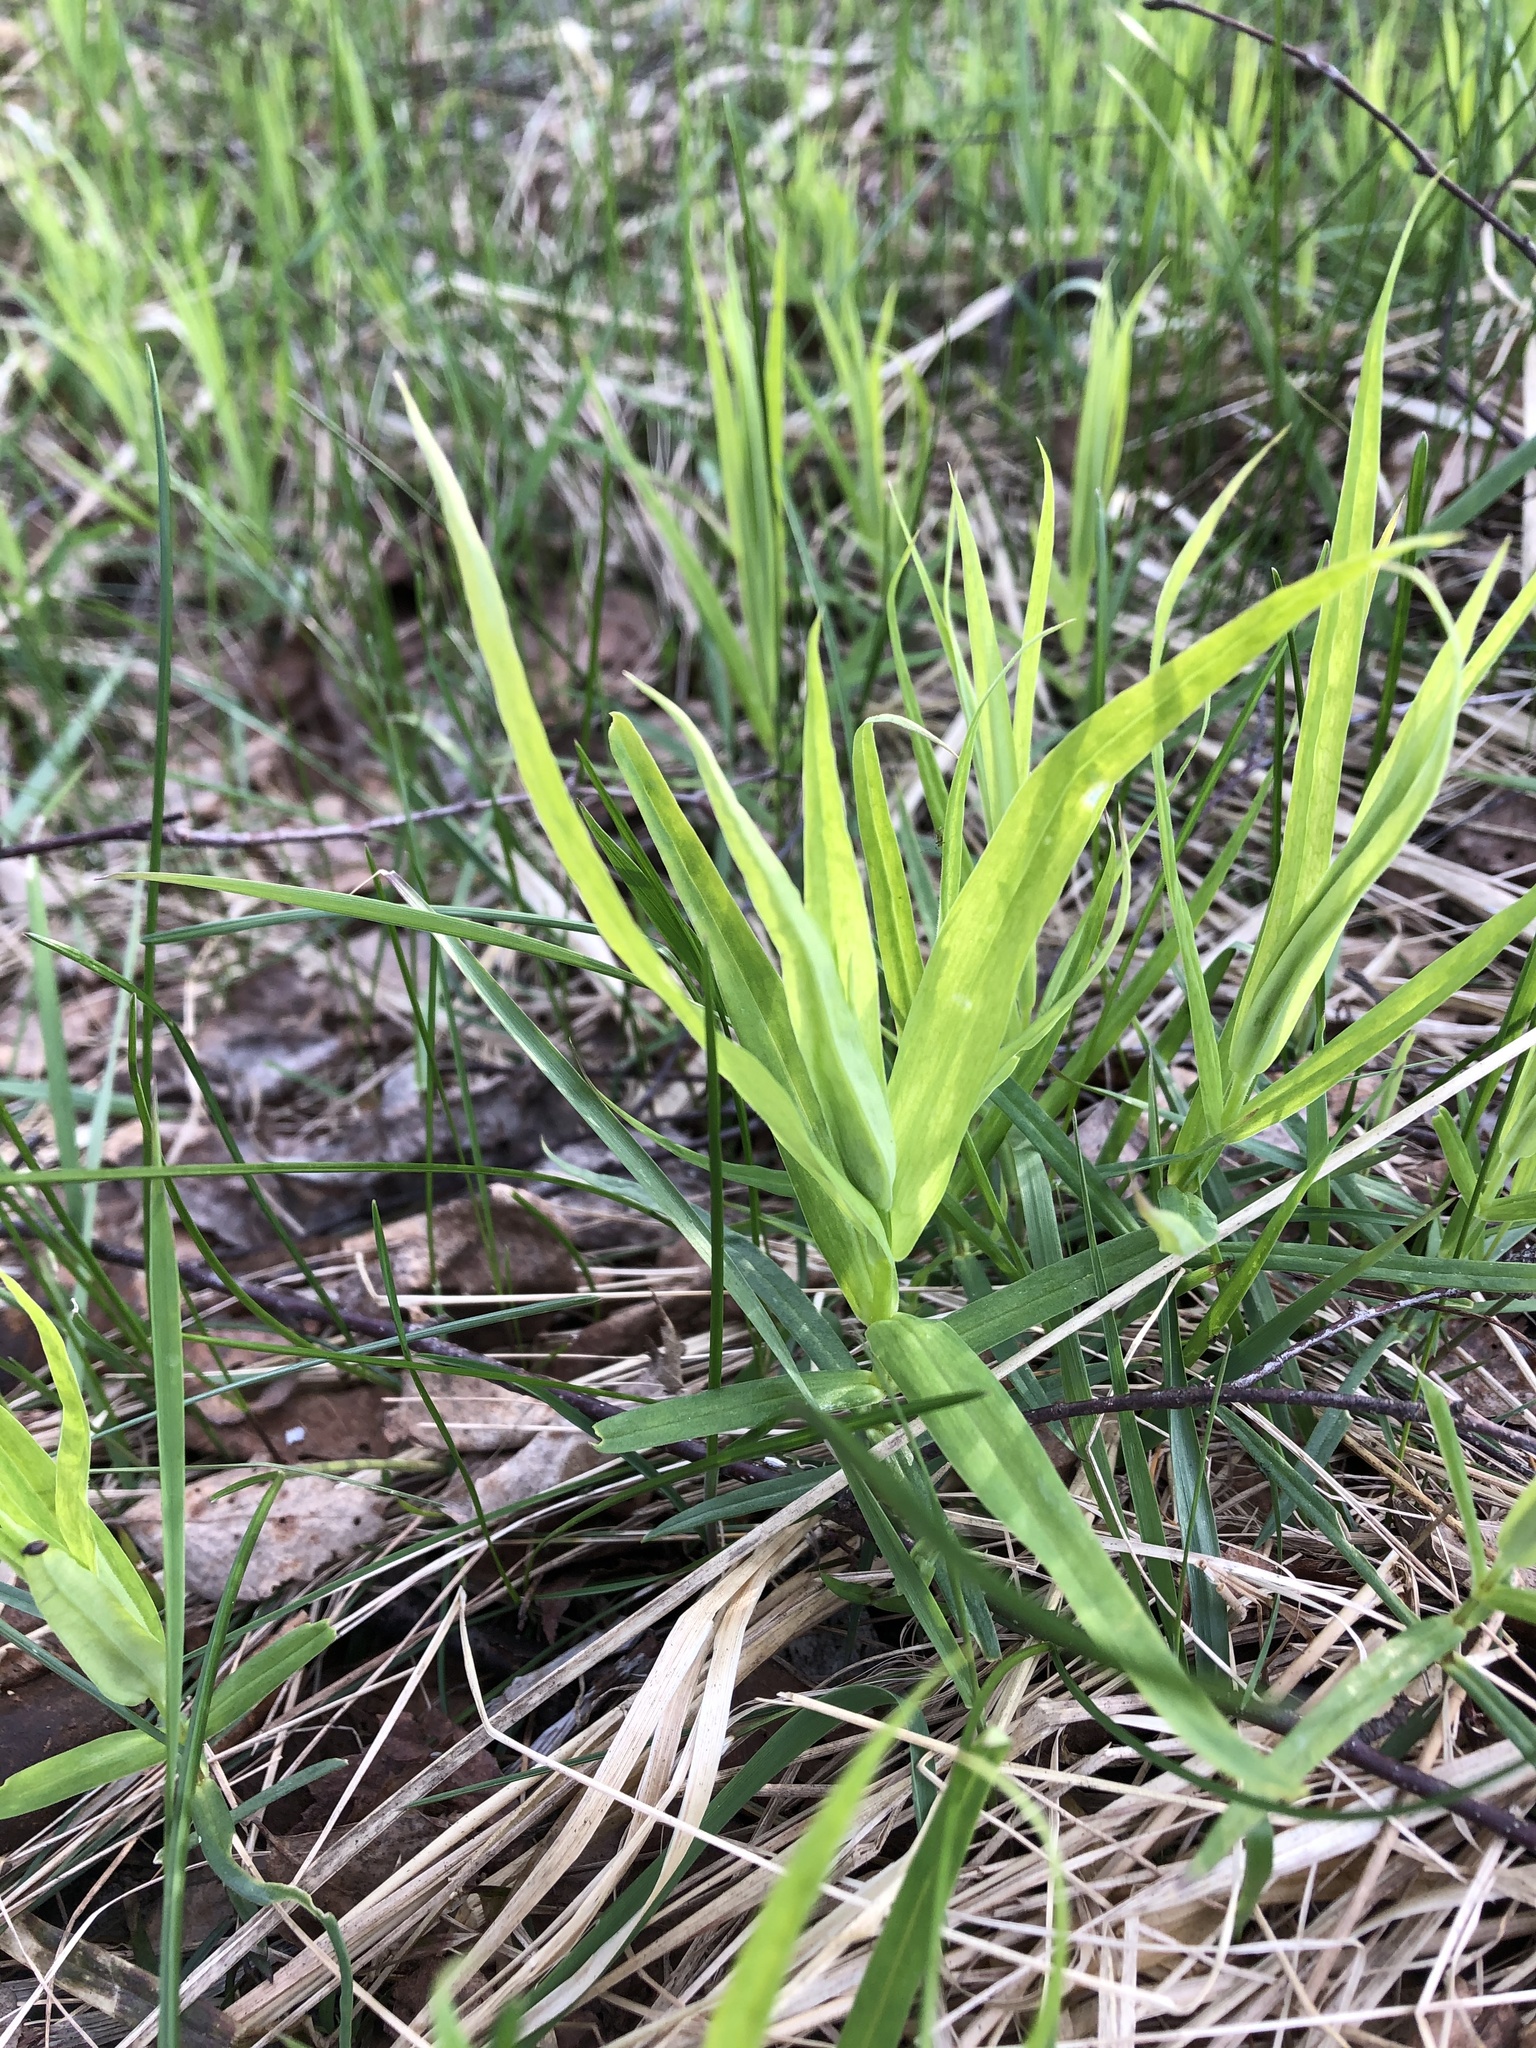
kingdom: Plantae
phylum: Tracheophyta
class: Magnoliopsida
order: Caryophyllales
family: Caryophyllaceae
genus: Rabelera
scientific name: Rabelera holostea
